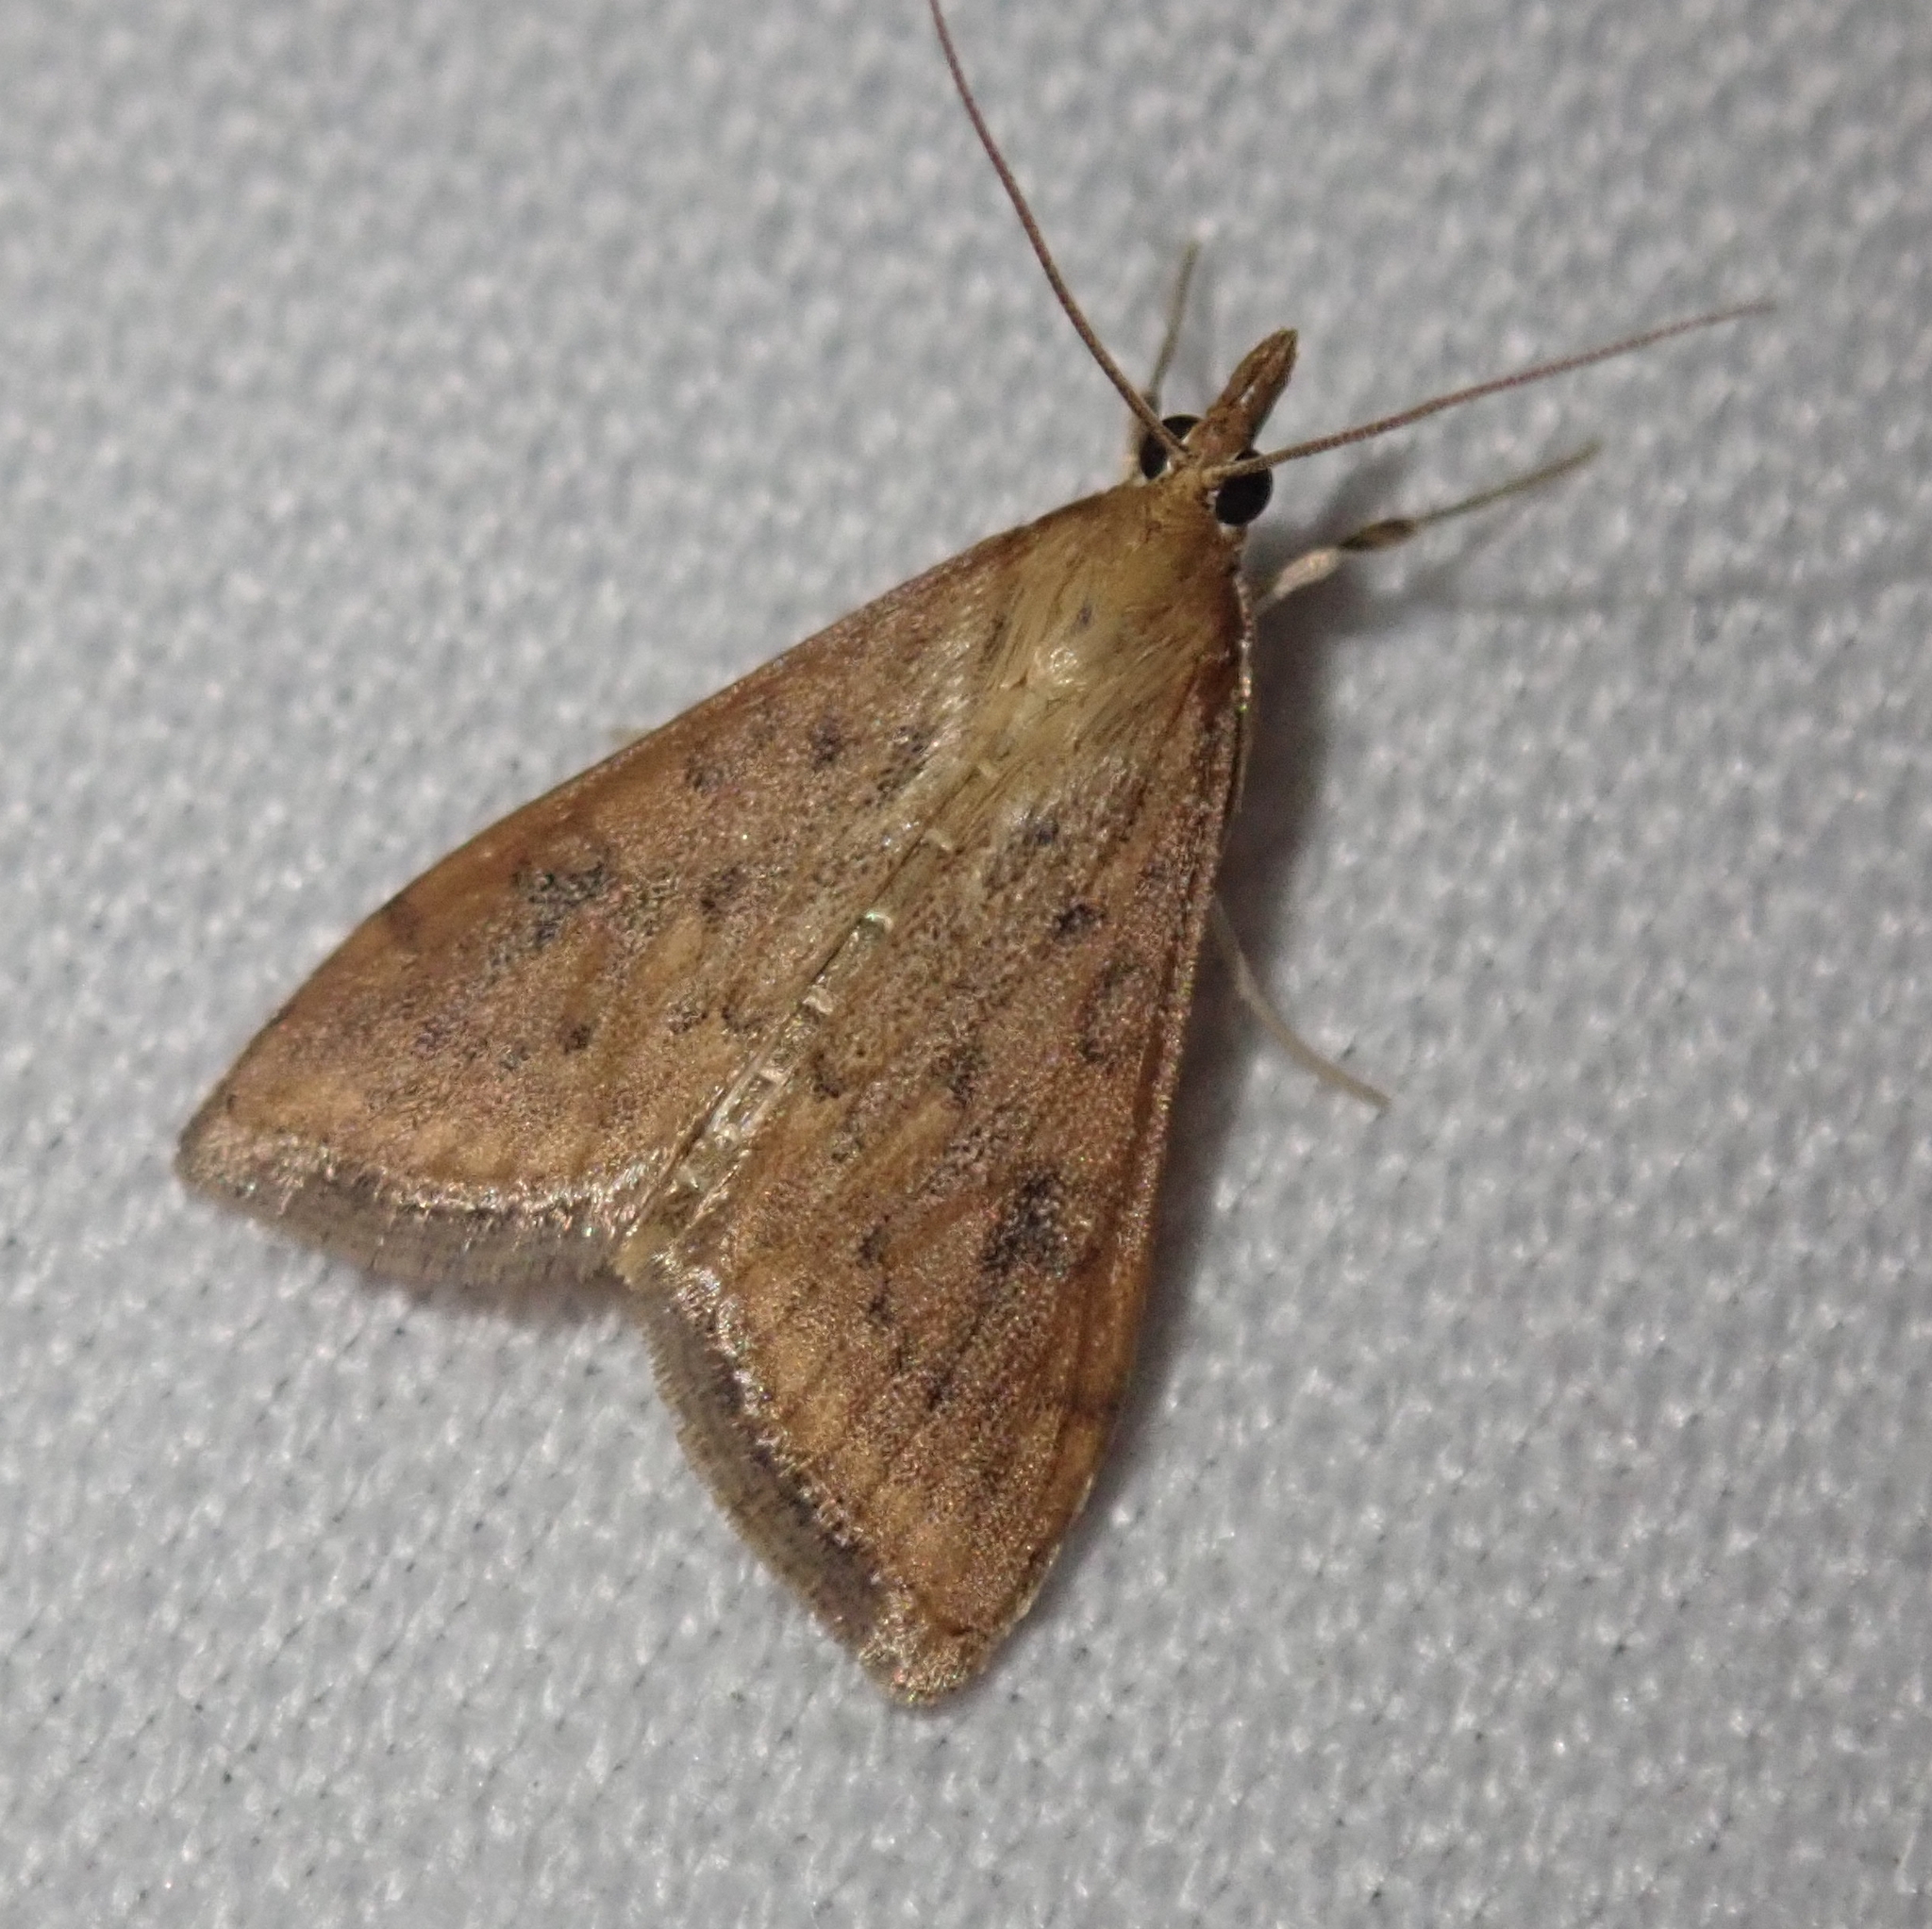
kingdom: Animalia
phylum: Arthropoda
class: Insecta
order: Lepidoptera
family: Crambidae
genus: Udea
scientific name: Udea ferrugalis
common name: Rusty dot
